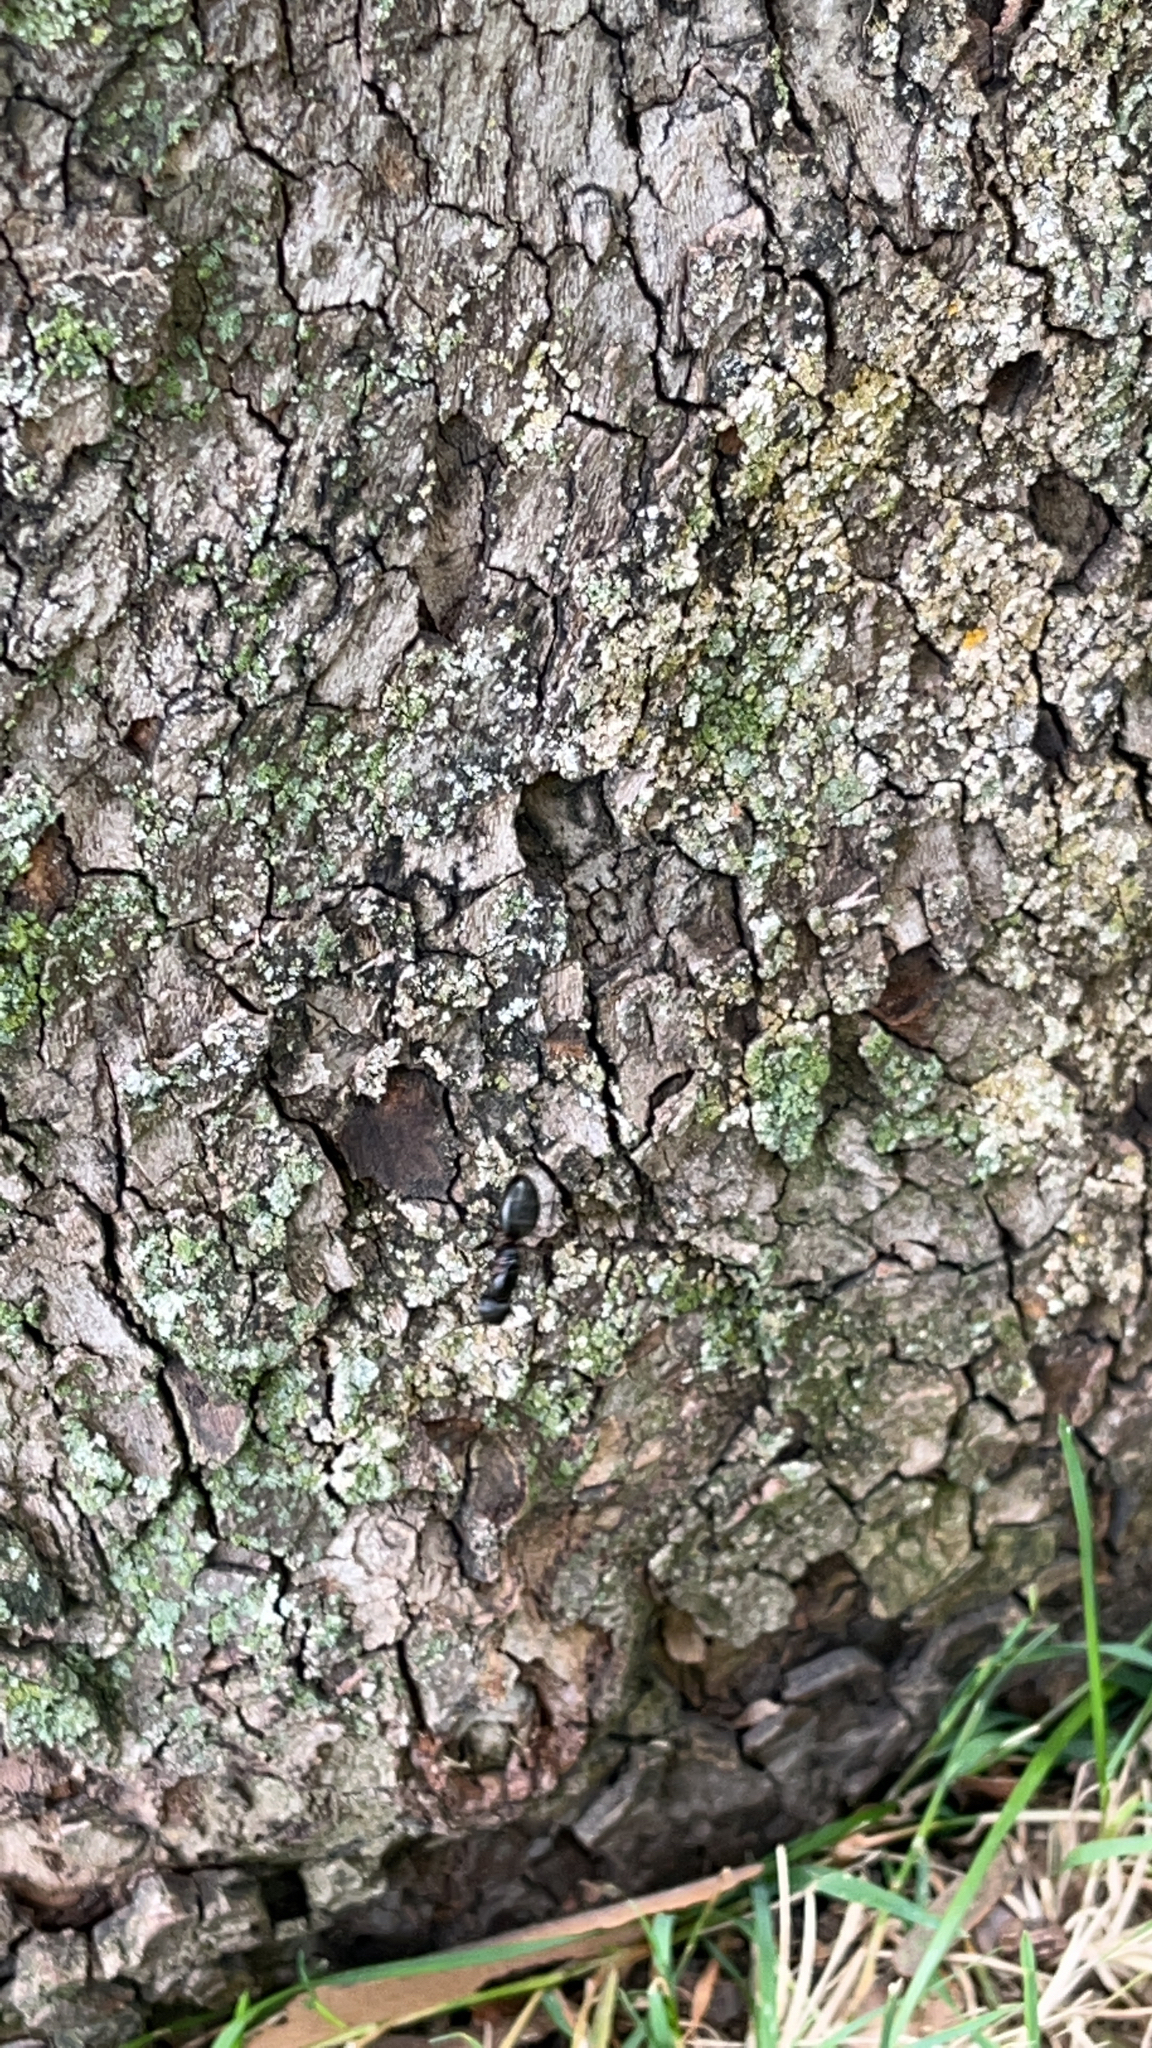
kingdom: Animalia
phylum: Arthropoda
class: Insecta
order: Hymenoptera
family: Formicidae
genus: Camponotus
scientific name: Camponotus pennsylvanicus
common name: Black carpenter ant
